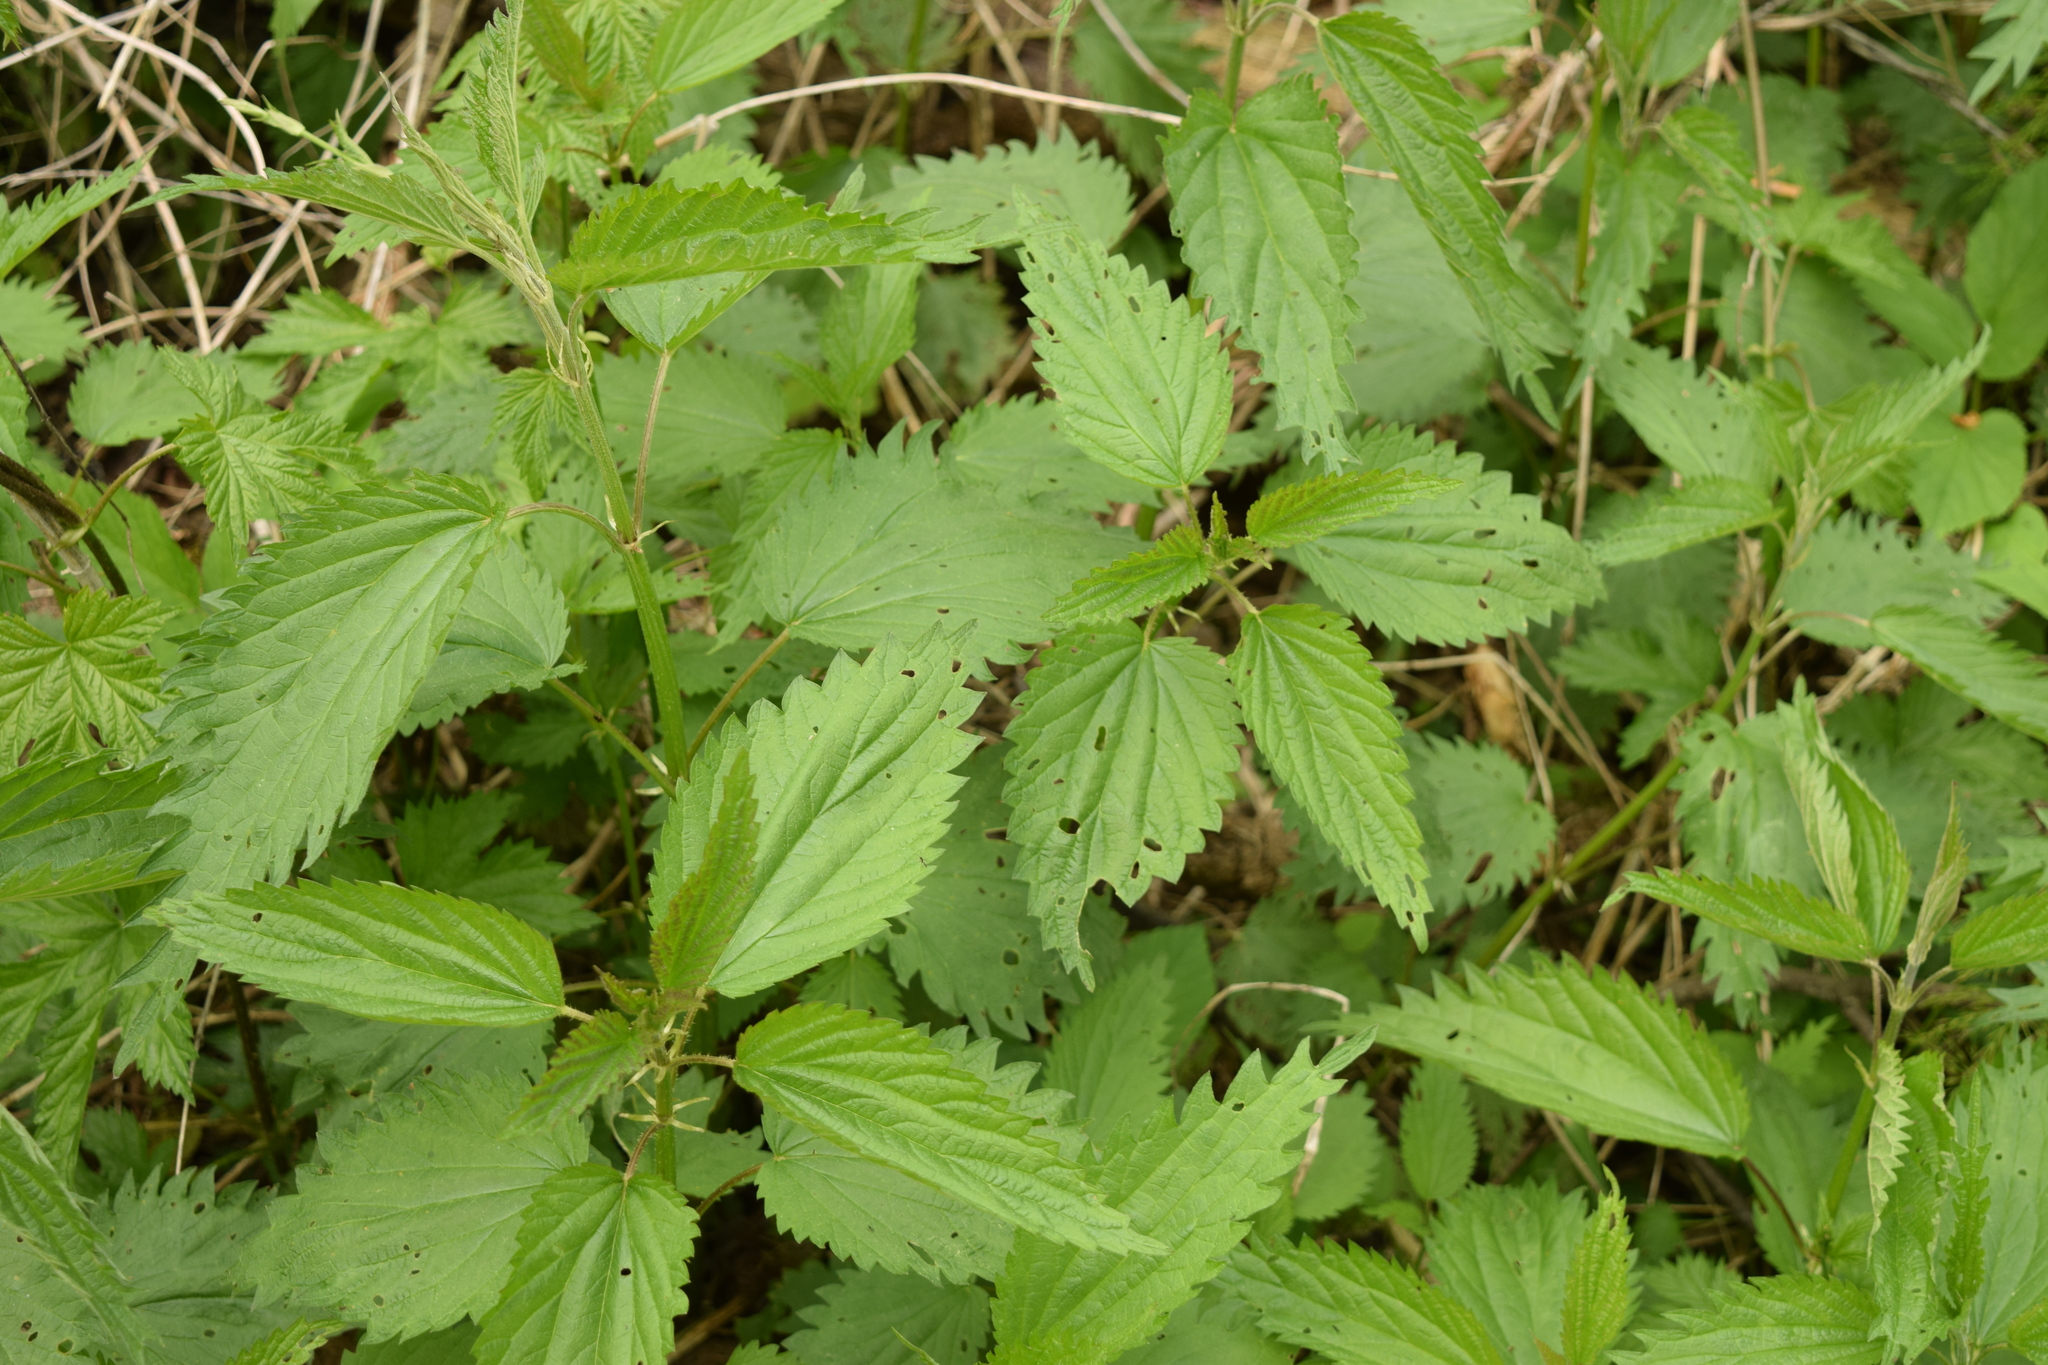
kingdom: Plantae
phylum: Tracheophyta
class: Magnoliopsida
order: Rosales
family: Urticaceae
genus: Urtica
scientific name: Urtica dioica
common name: Common nettle
